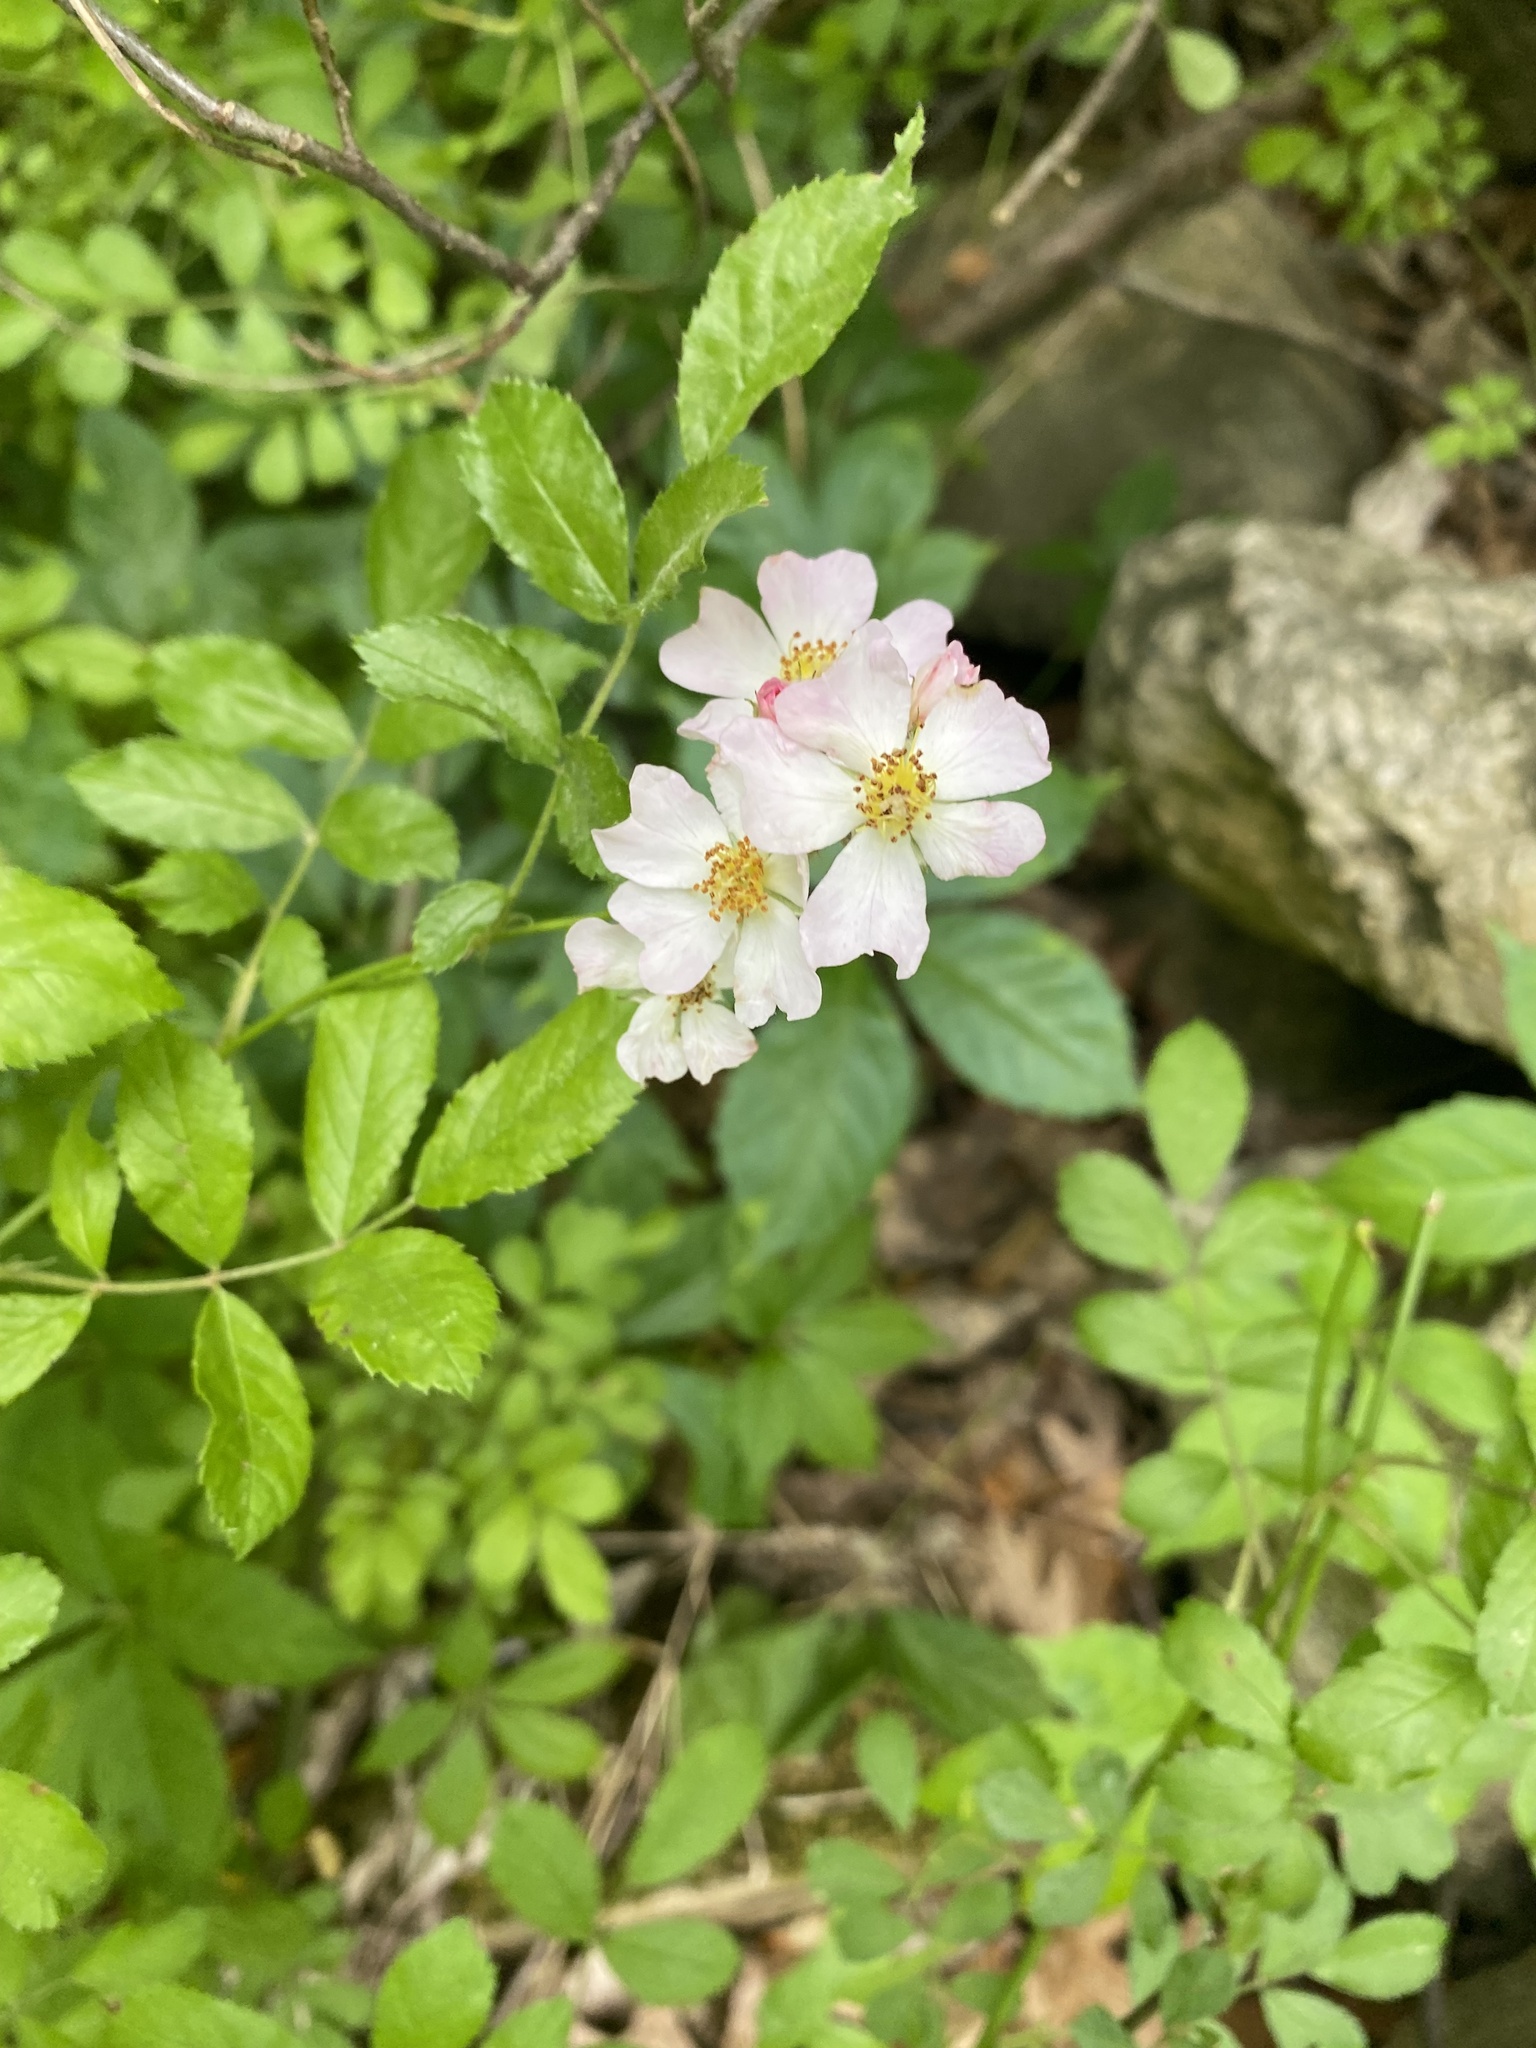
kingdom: Plantae
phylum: Tracheophyta
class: Magnoliopsida
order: Rosales
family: Rosaceae
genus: Rosa
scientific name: Rosa multiflora
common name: Multiflora rose
